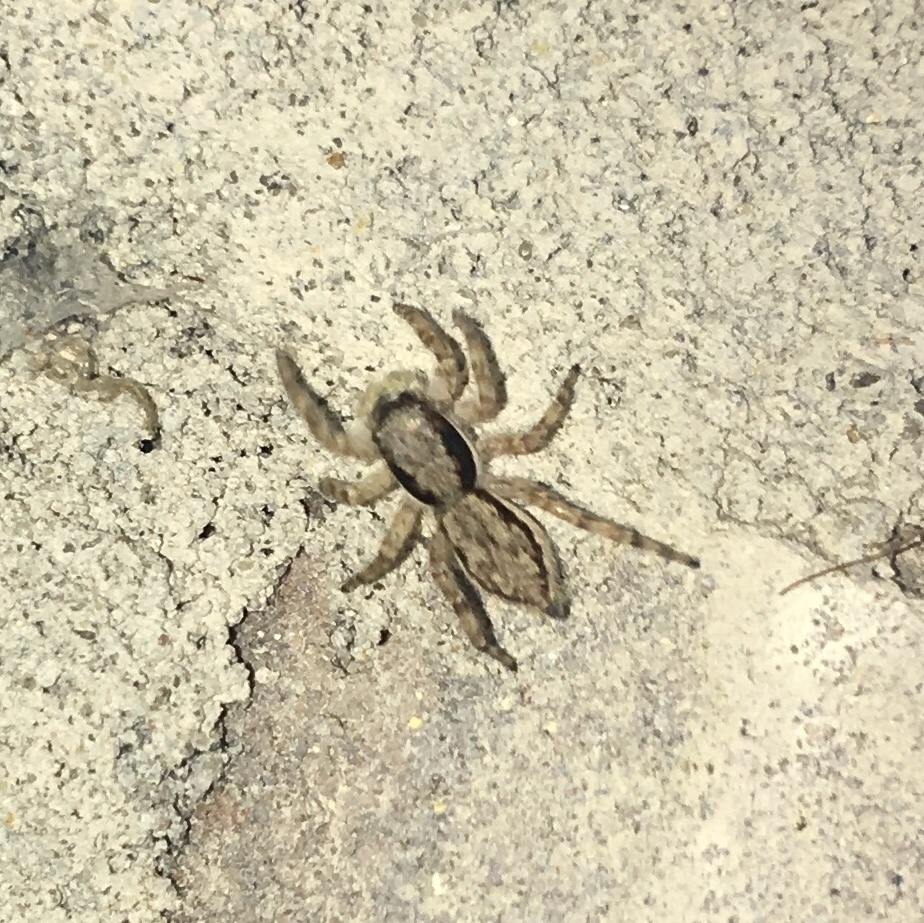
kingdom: Animalia
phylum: Arthropoda
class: Arachnida
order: Araneae
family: Salticidae
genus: Menemerus
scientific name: Menemerus bivittatus
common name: Gray wall jumper
